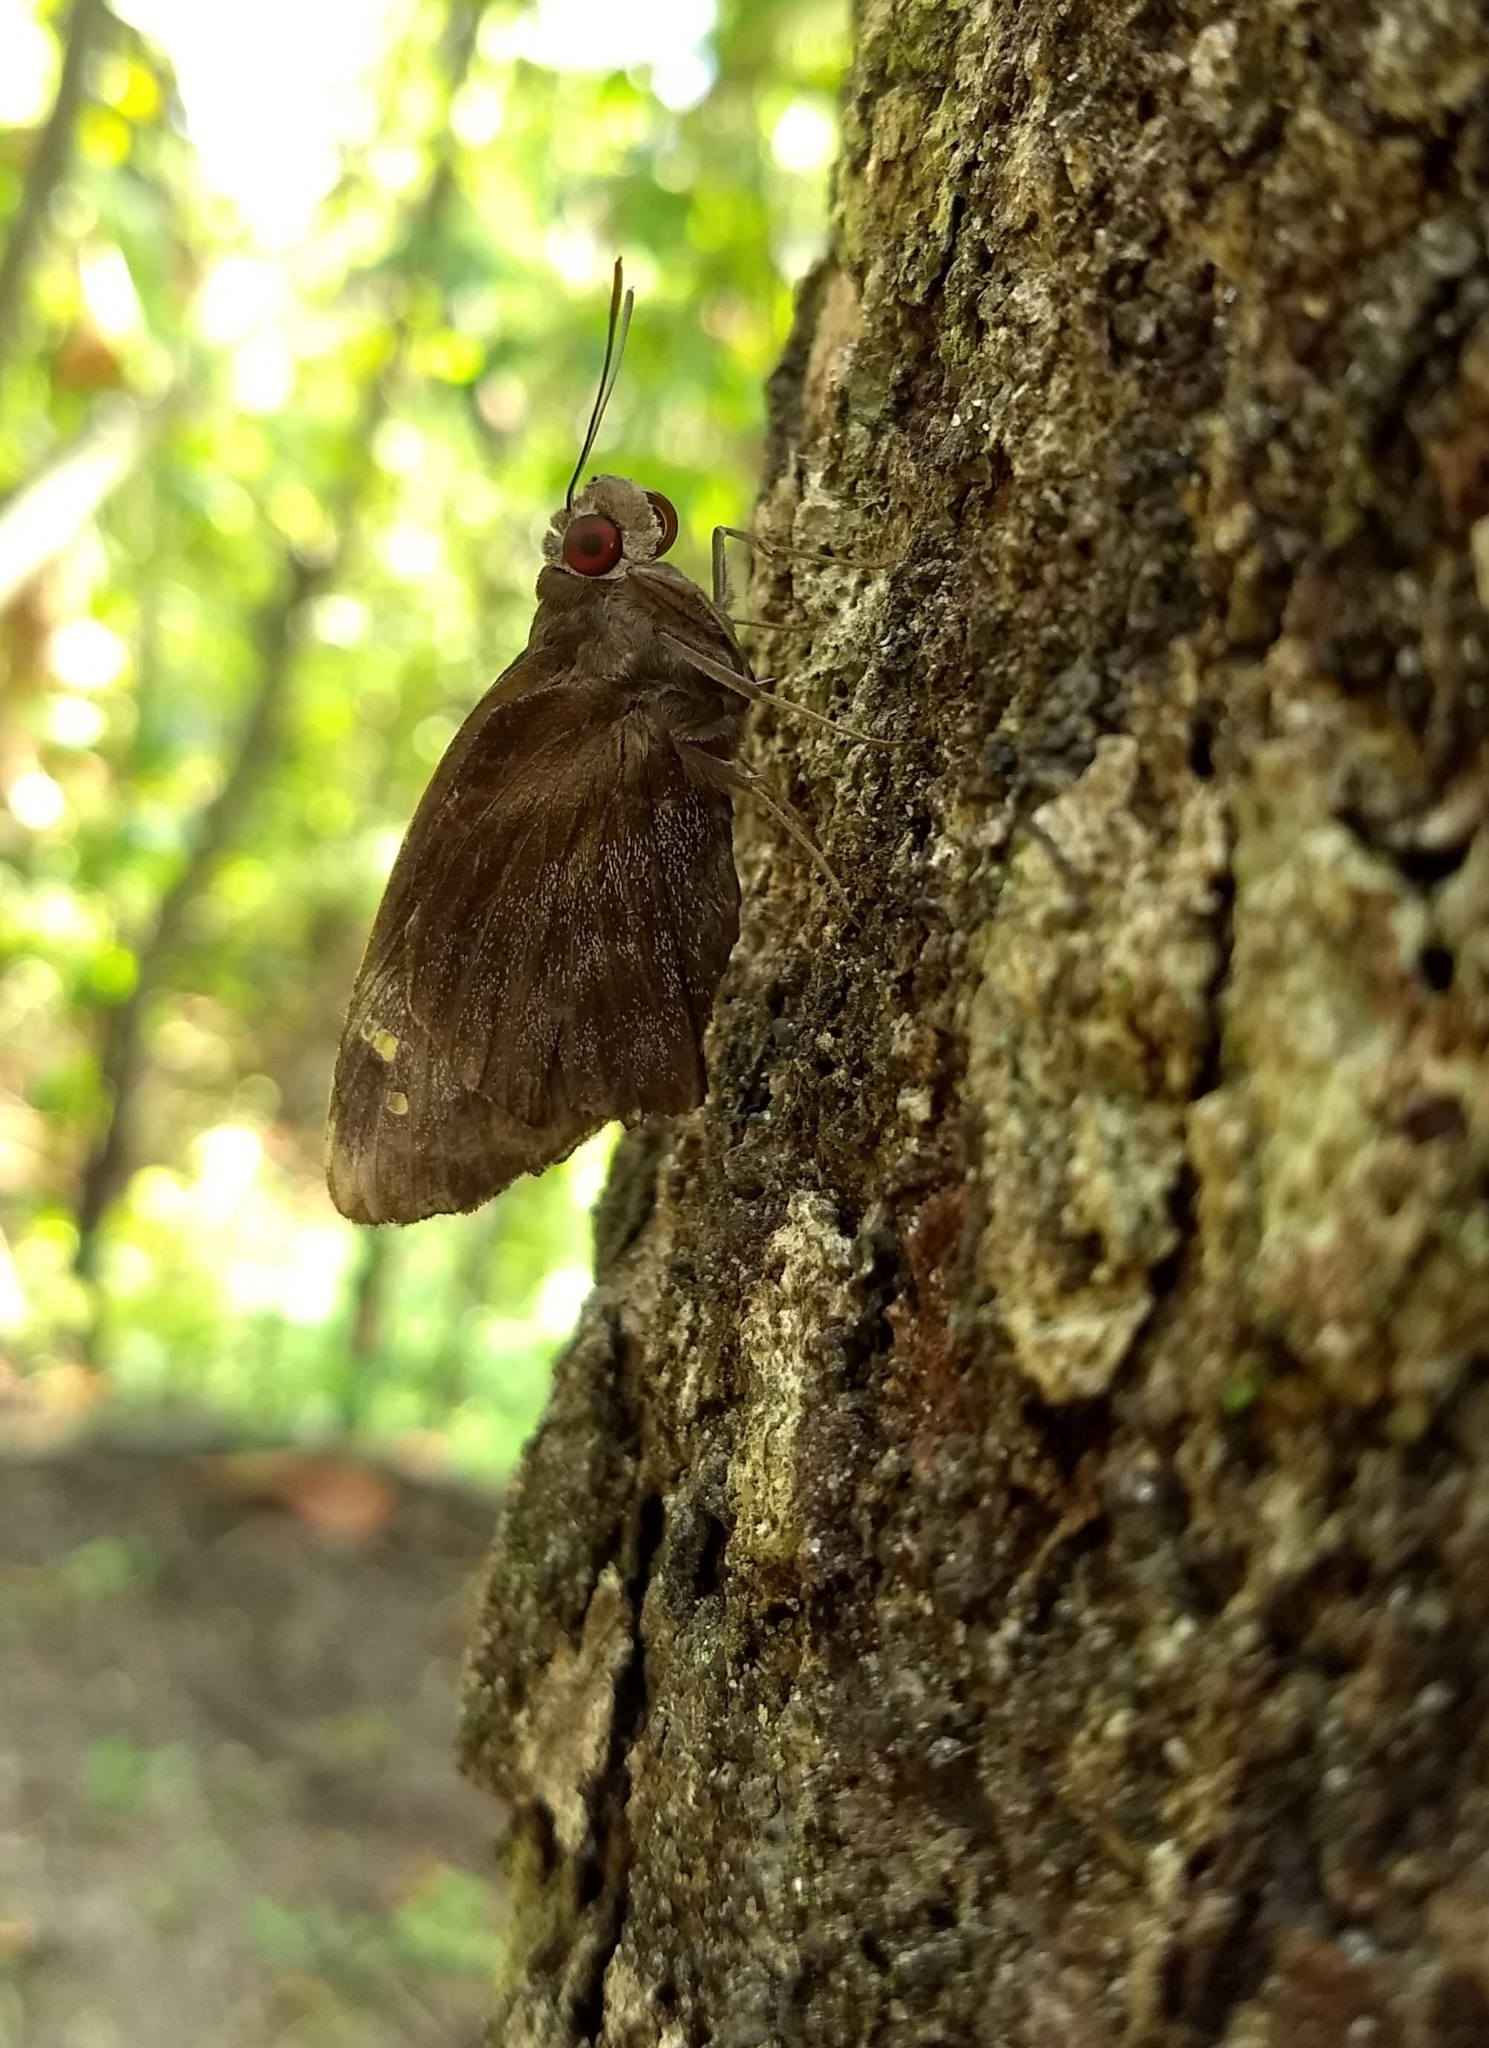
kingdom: Animalia
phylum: Arthropoda
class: Insecta
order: Lepidoptera
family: Hesperiidae
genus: Gangara
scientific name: Gangara thyrsis
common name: Giant redeye
